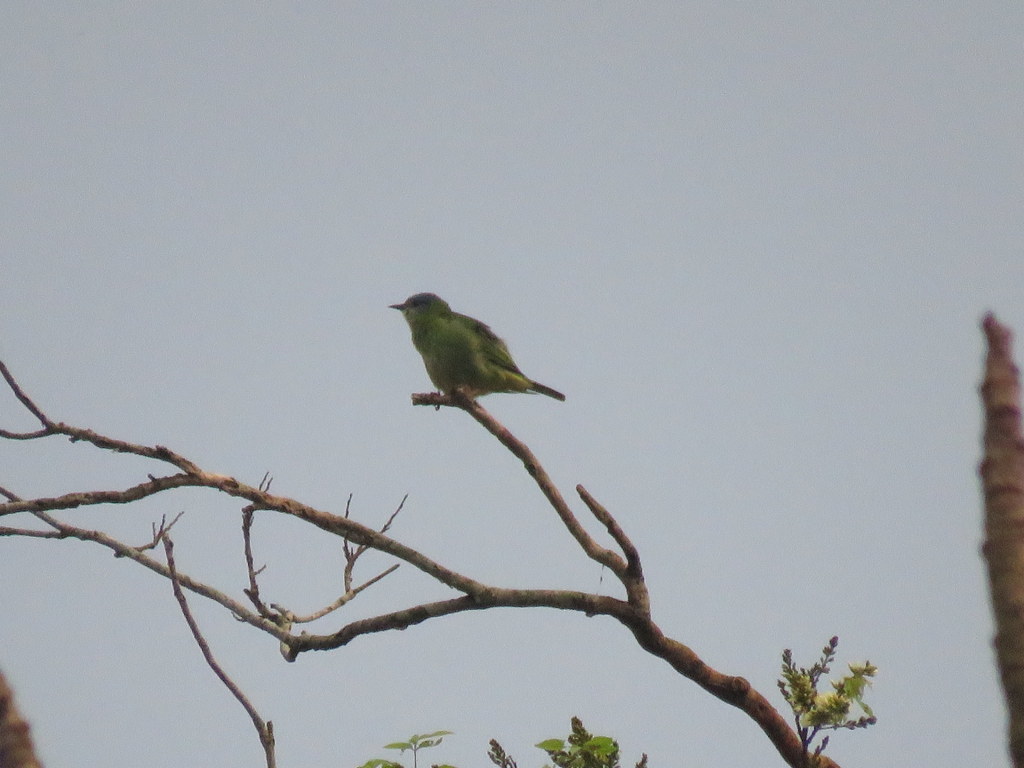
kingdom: Animalia
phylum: Chordata
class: Aves
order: Passeriformes
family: Thraupidae
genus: Dacnis
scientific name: Dacnis cayana
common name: Blue dacnis
